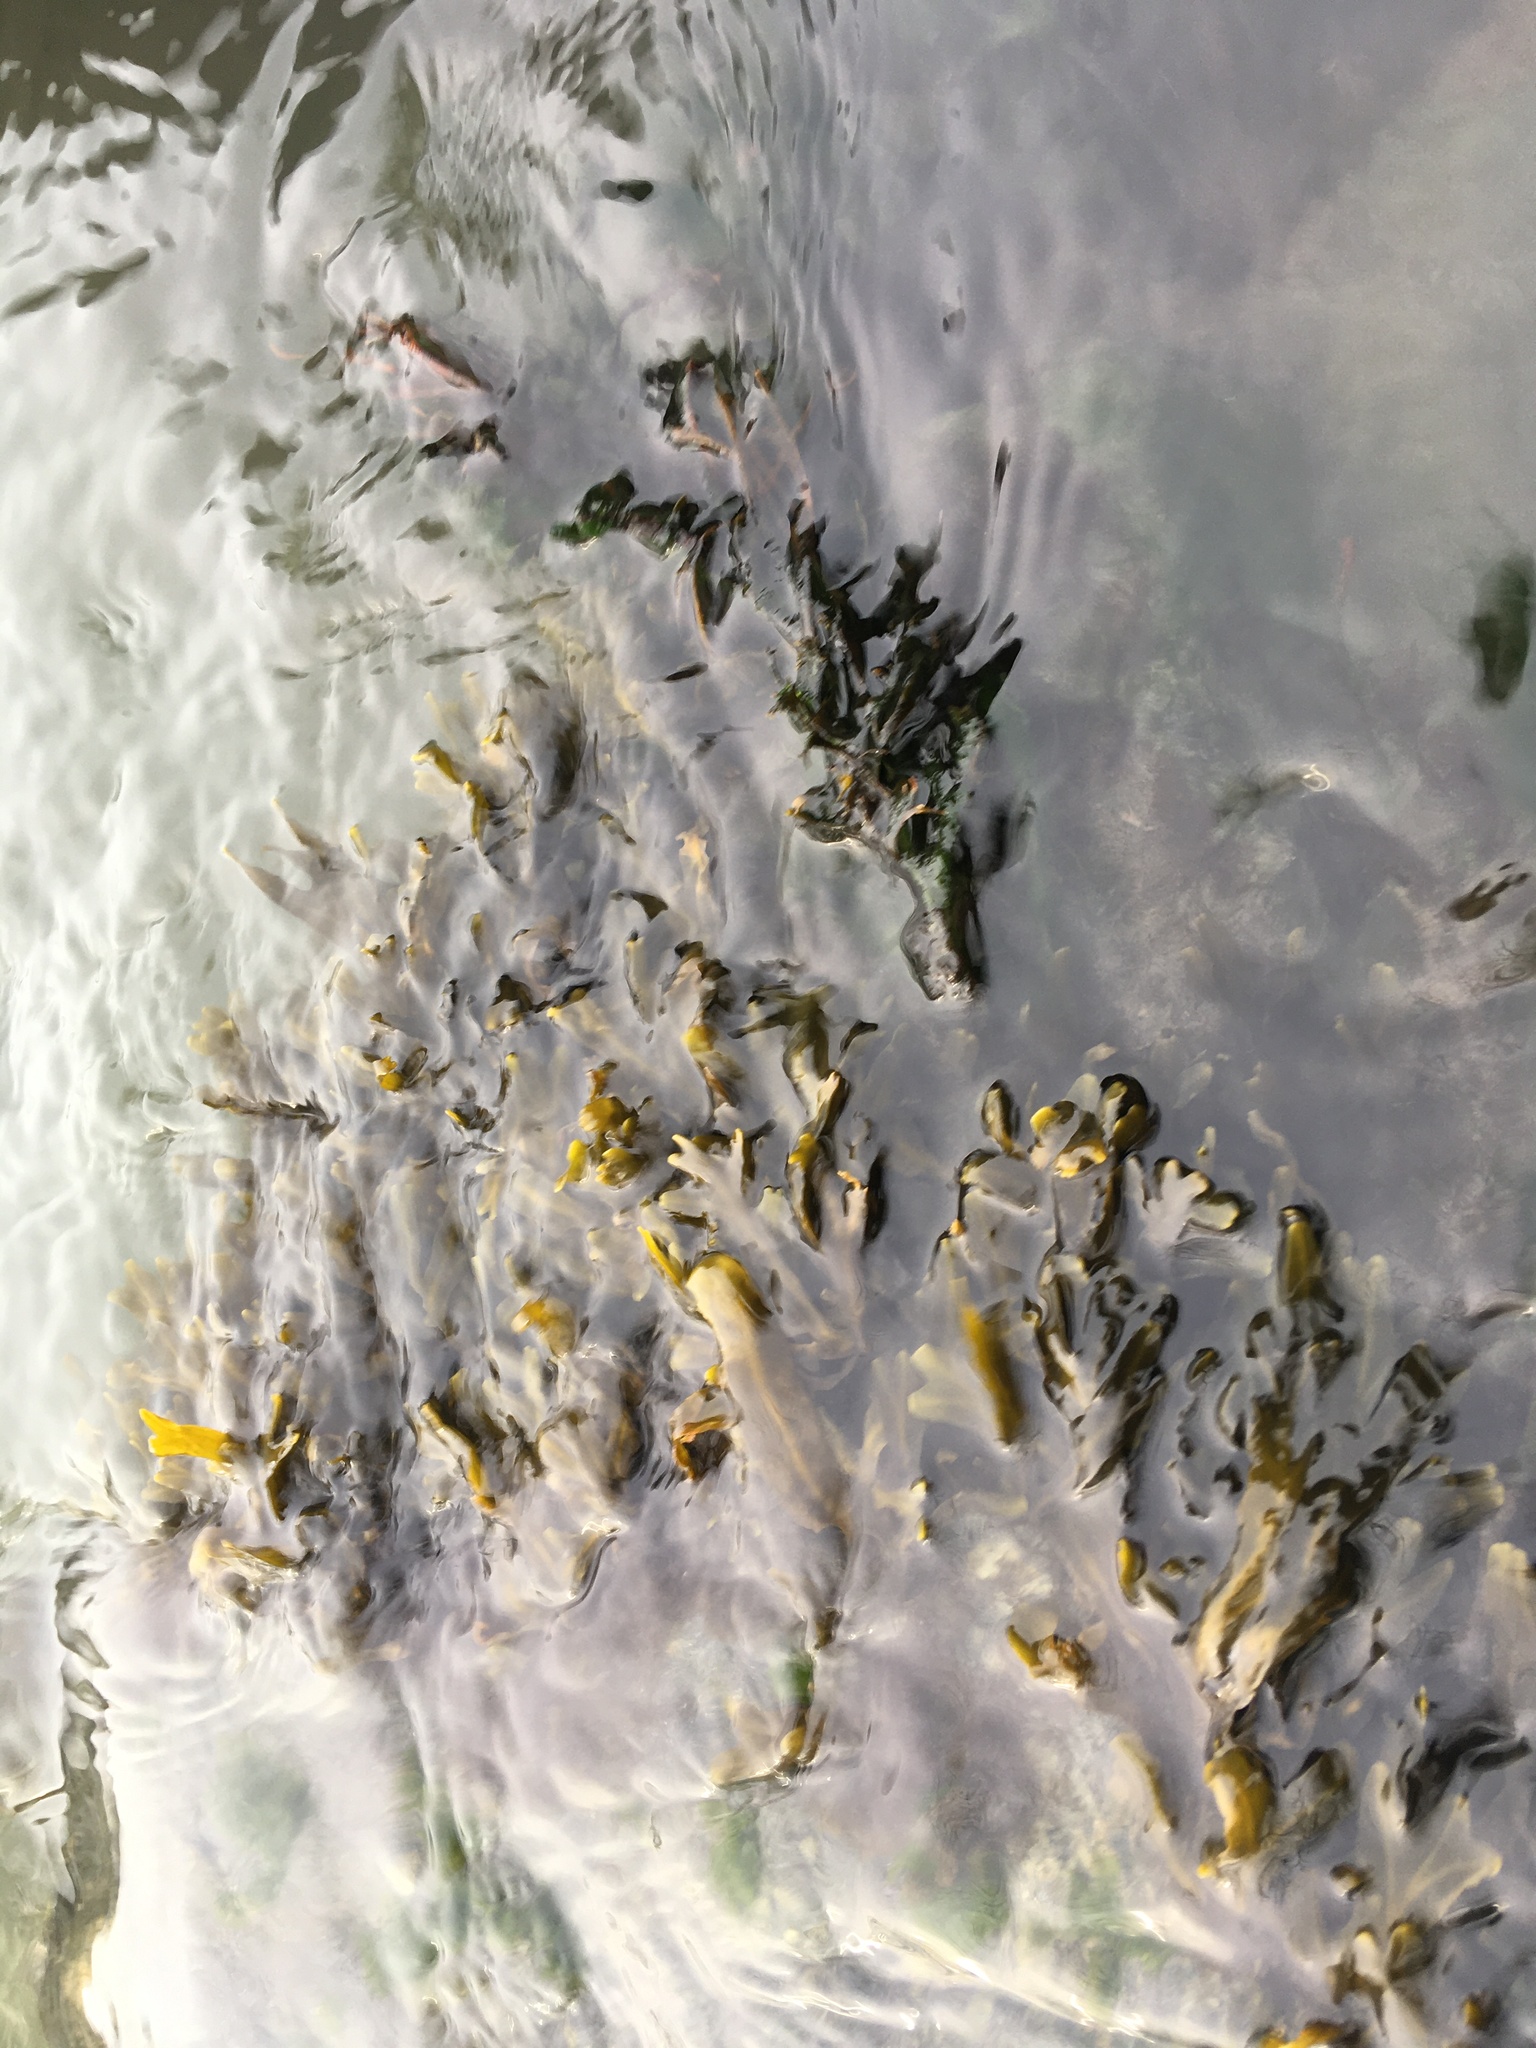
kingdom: Chromista
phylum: Ochrophyta
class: Phaeophyceae
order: Fucales
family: Fucaceae
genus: Fucus
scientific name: Fucus distichus
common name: Rockweed
